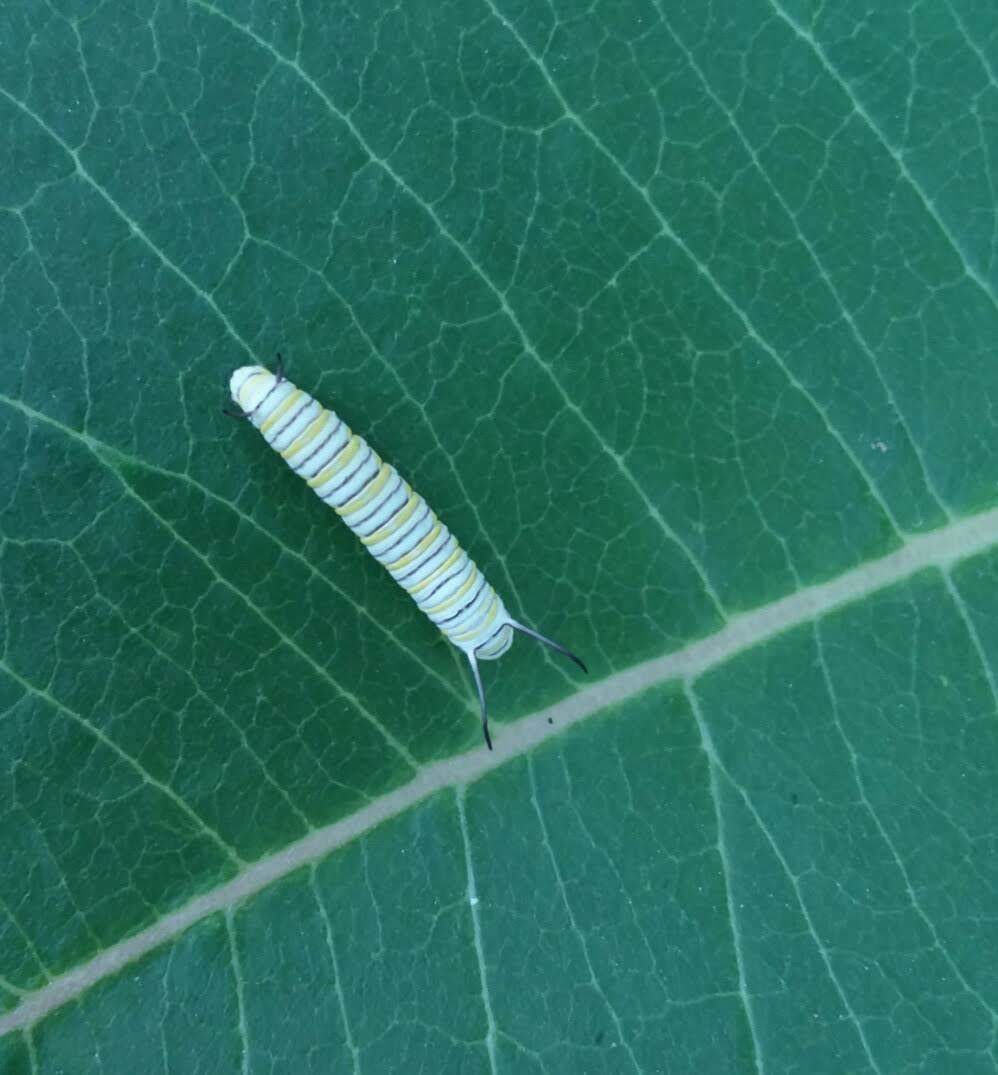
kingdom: Animalia
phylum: Arthropoda
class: Insecta
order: Lepidoptera
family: Nymphalidae
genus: Danaus
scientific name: Danaus plexippus
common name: Monarch
